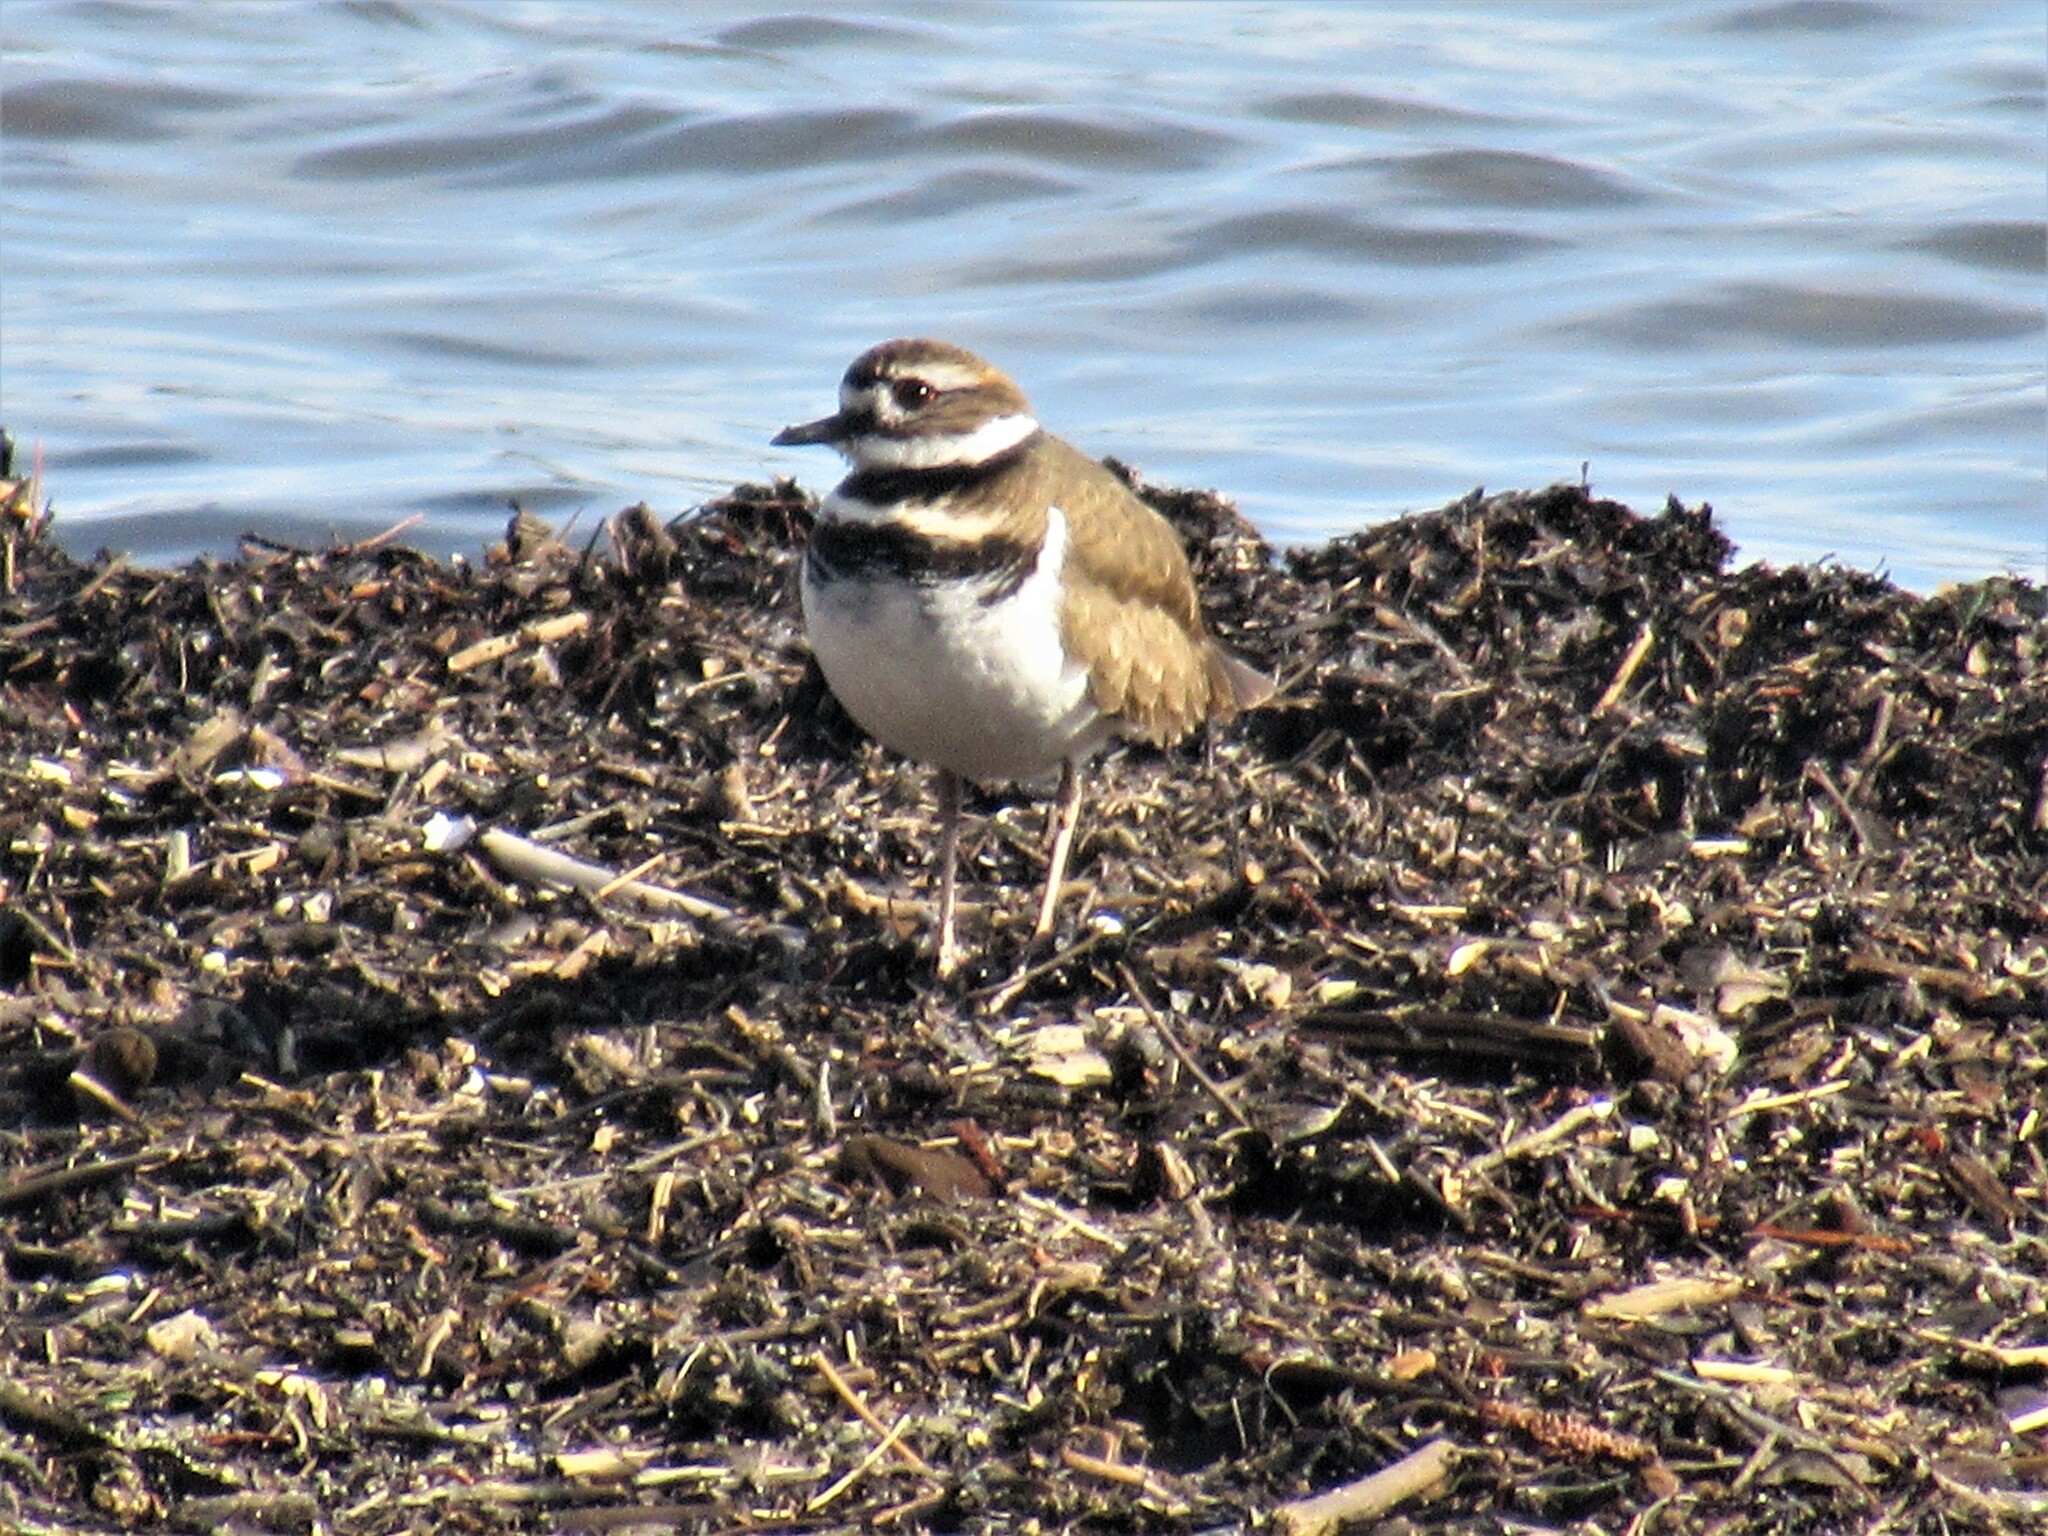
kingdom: Animalia
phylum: Chordata
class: Aves
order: Charadriiformes
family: Charadriidae
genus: Charadrius
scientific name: Charadrius vociferus
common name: Killdeer
